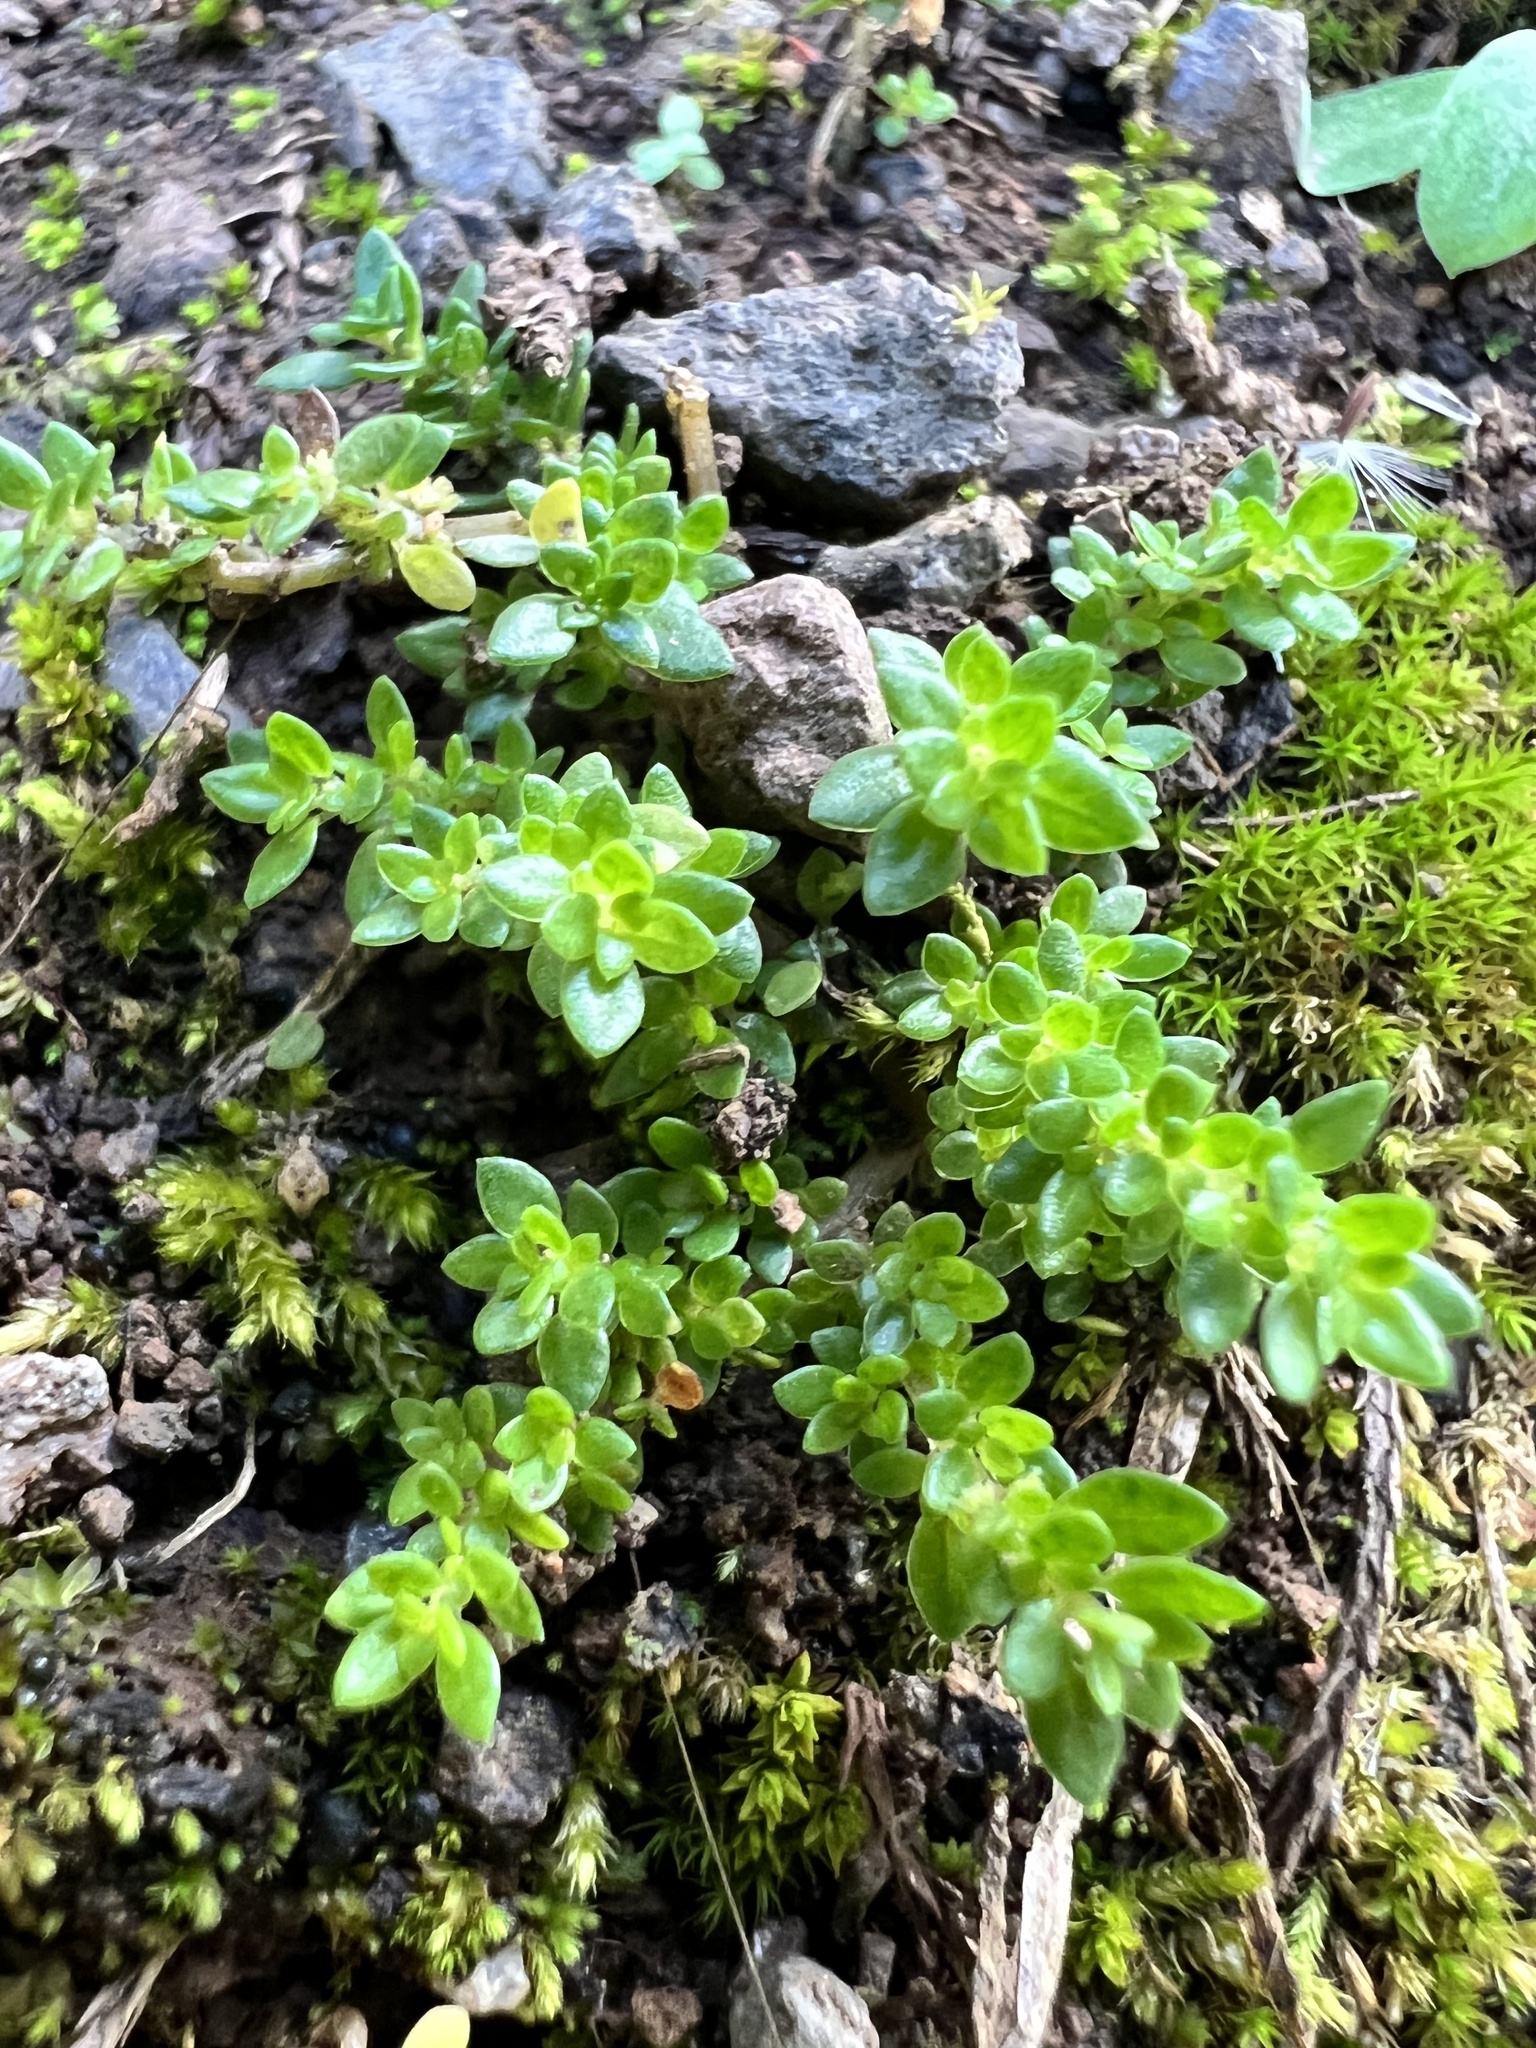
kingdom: Plantae
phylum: Tracheophyta
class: Magnoliopsida
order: Rosales
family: Urticaceae
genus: Pilea
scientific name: Pilea microphylla
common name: Artillery-plant
